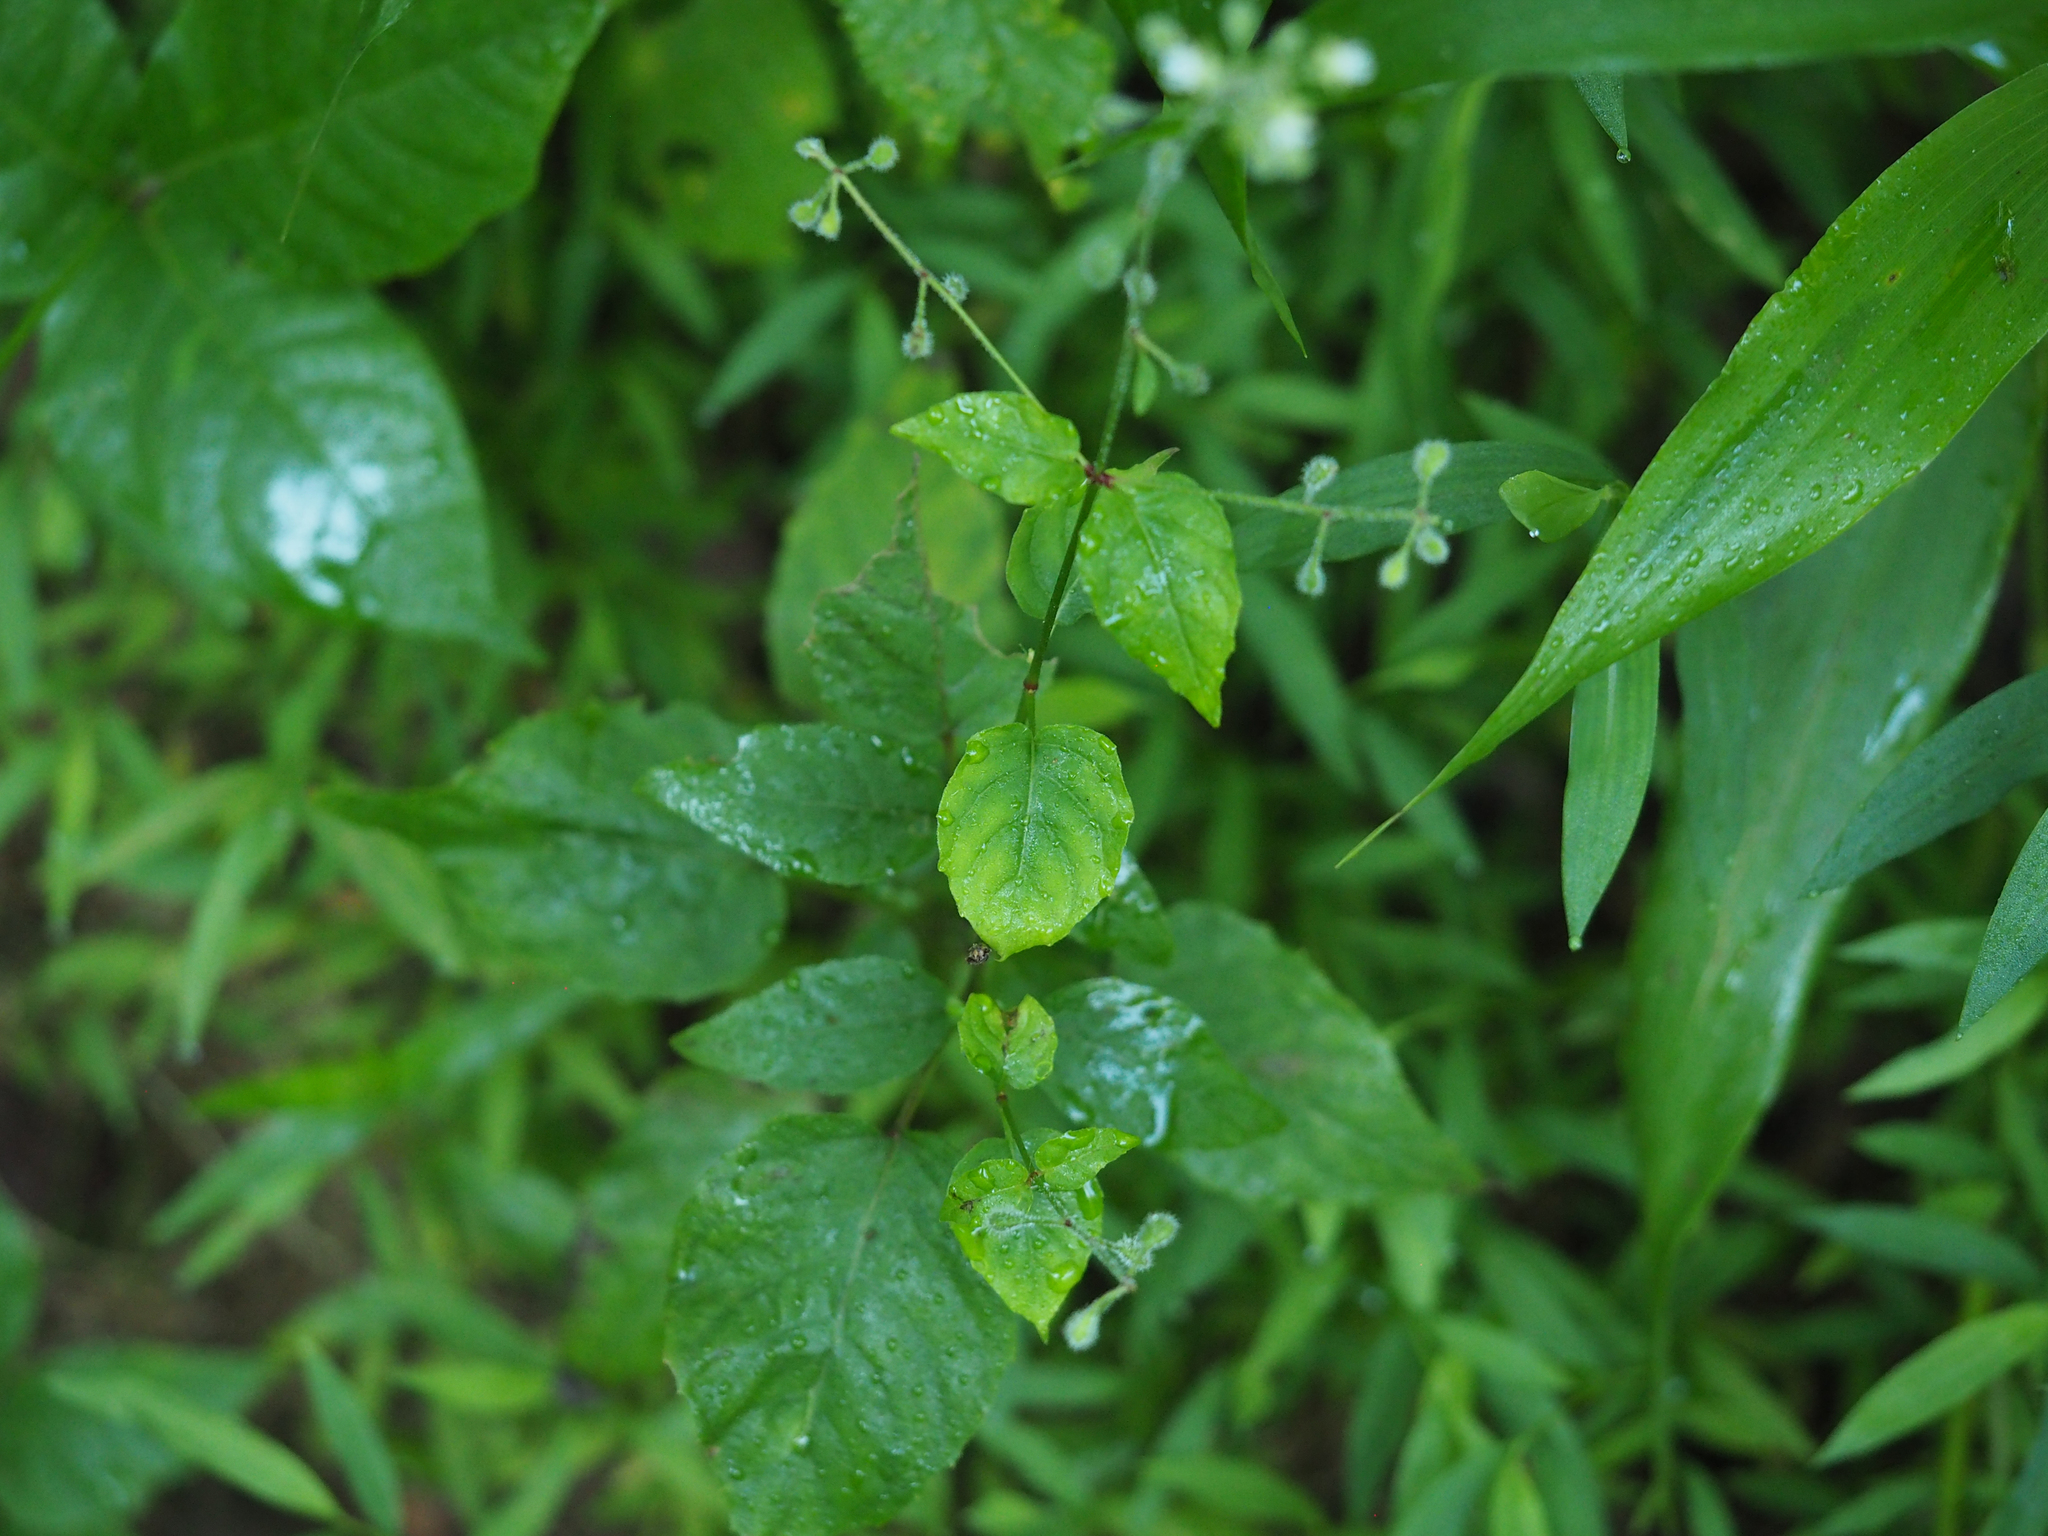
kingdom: Plantae
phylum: Tracheophyta
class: Magnoliopsida
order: Myrtales
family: Onagraceae
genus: Circaea
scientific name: Circaea canadensis
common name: Broad-leaved enchanter's nightshade
